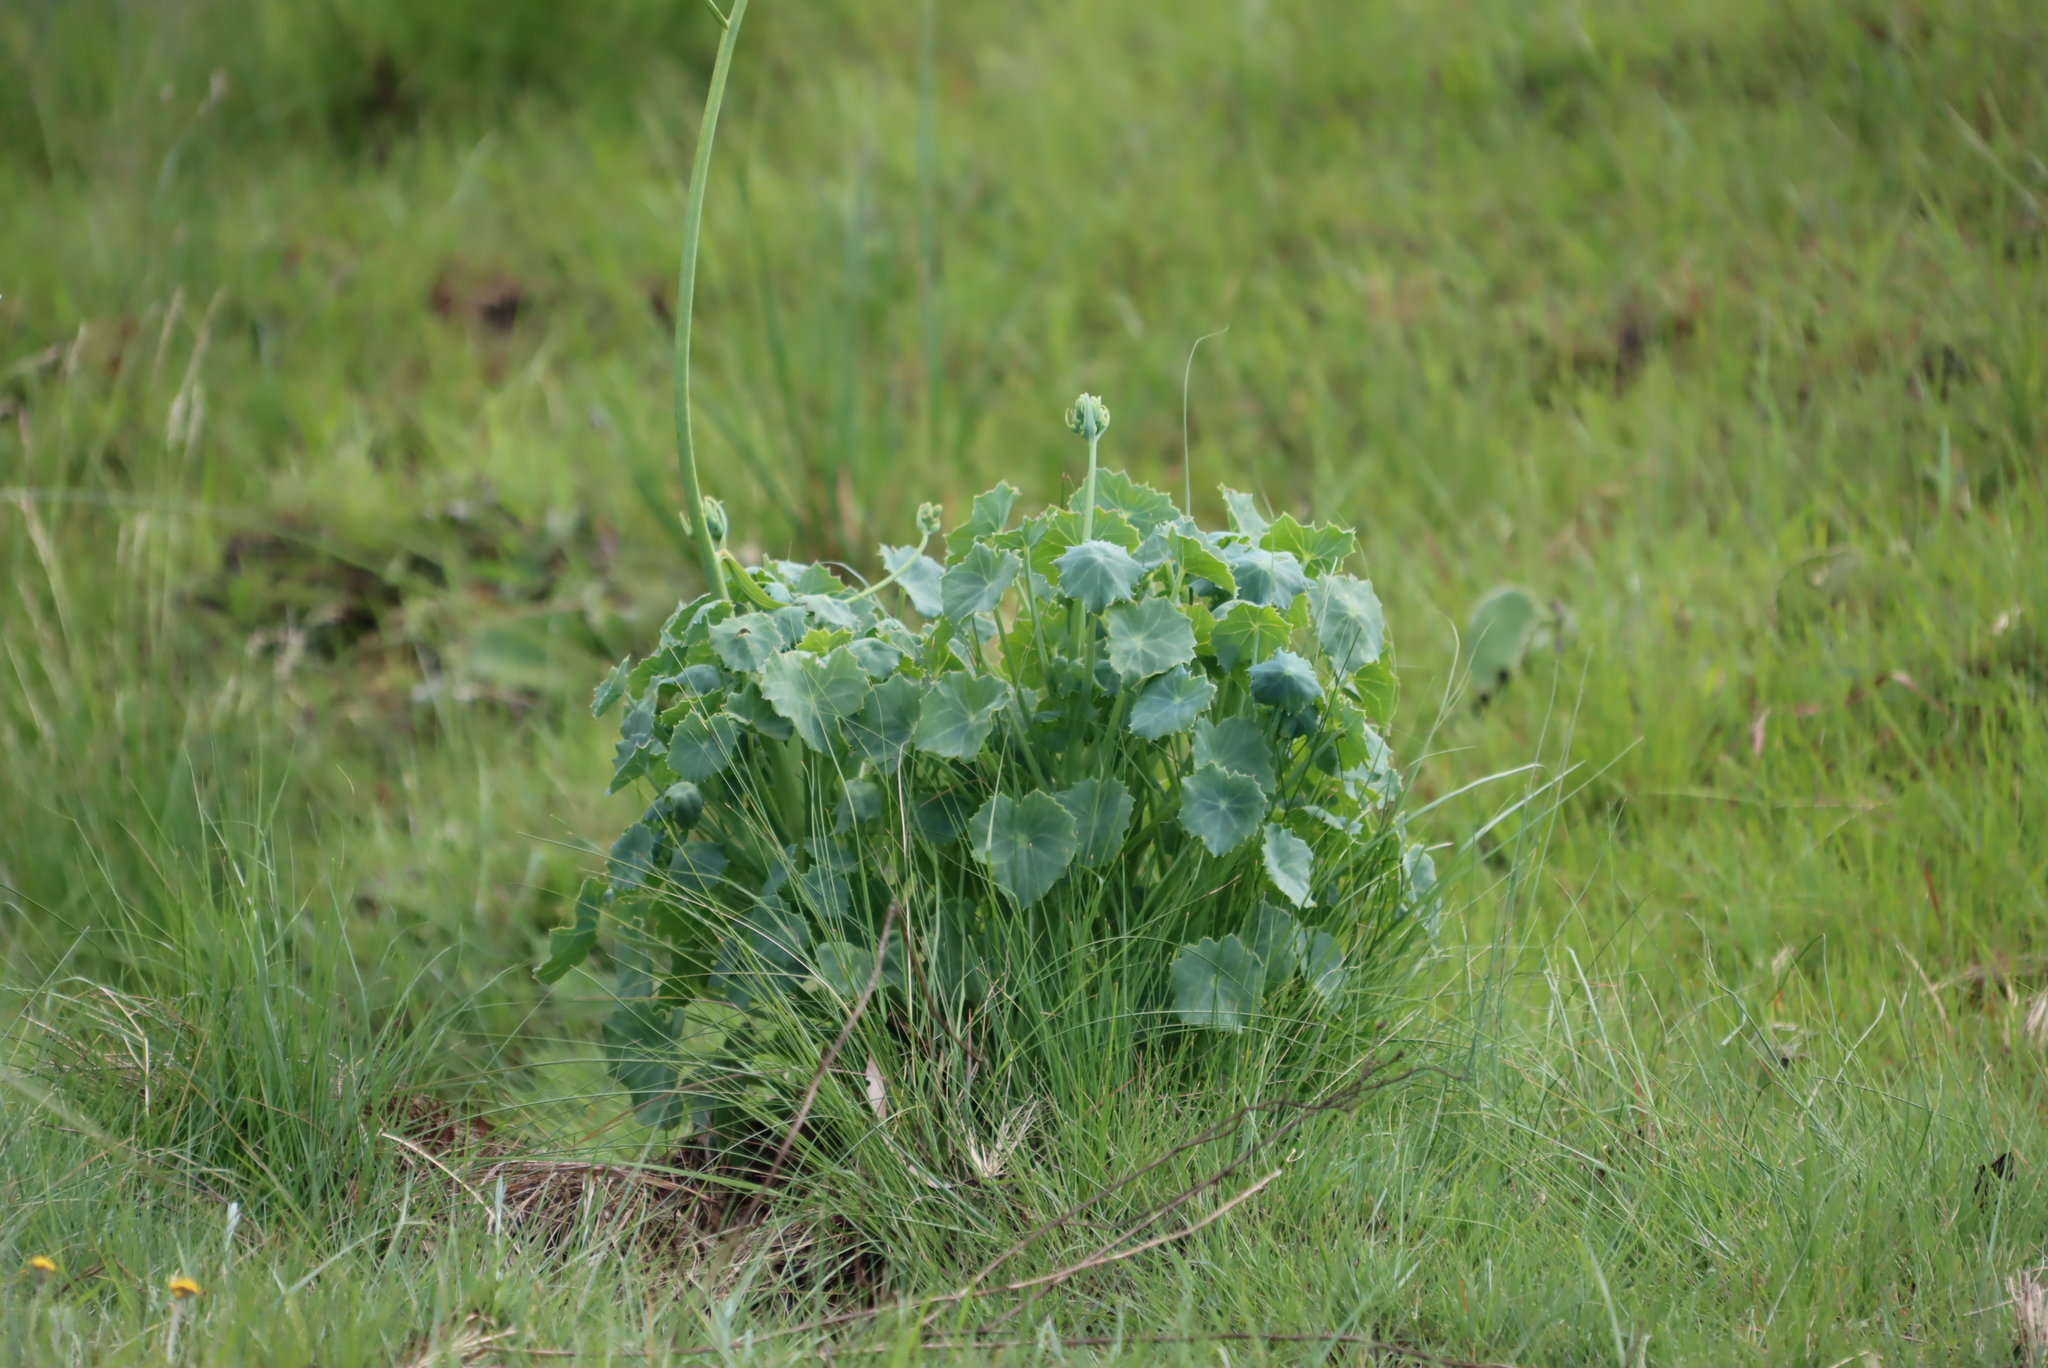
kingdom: Plantae
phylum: Tracheophyta
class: Magnoliopsida
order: Asterales
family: Asteraceae
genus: Senecio
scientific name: Senecio oxyriifolius
